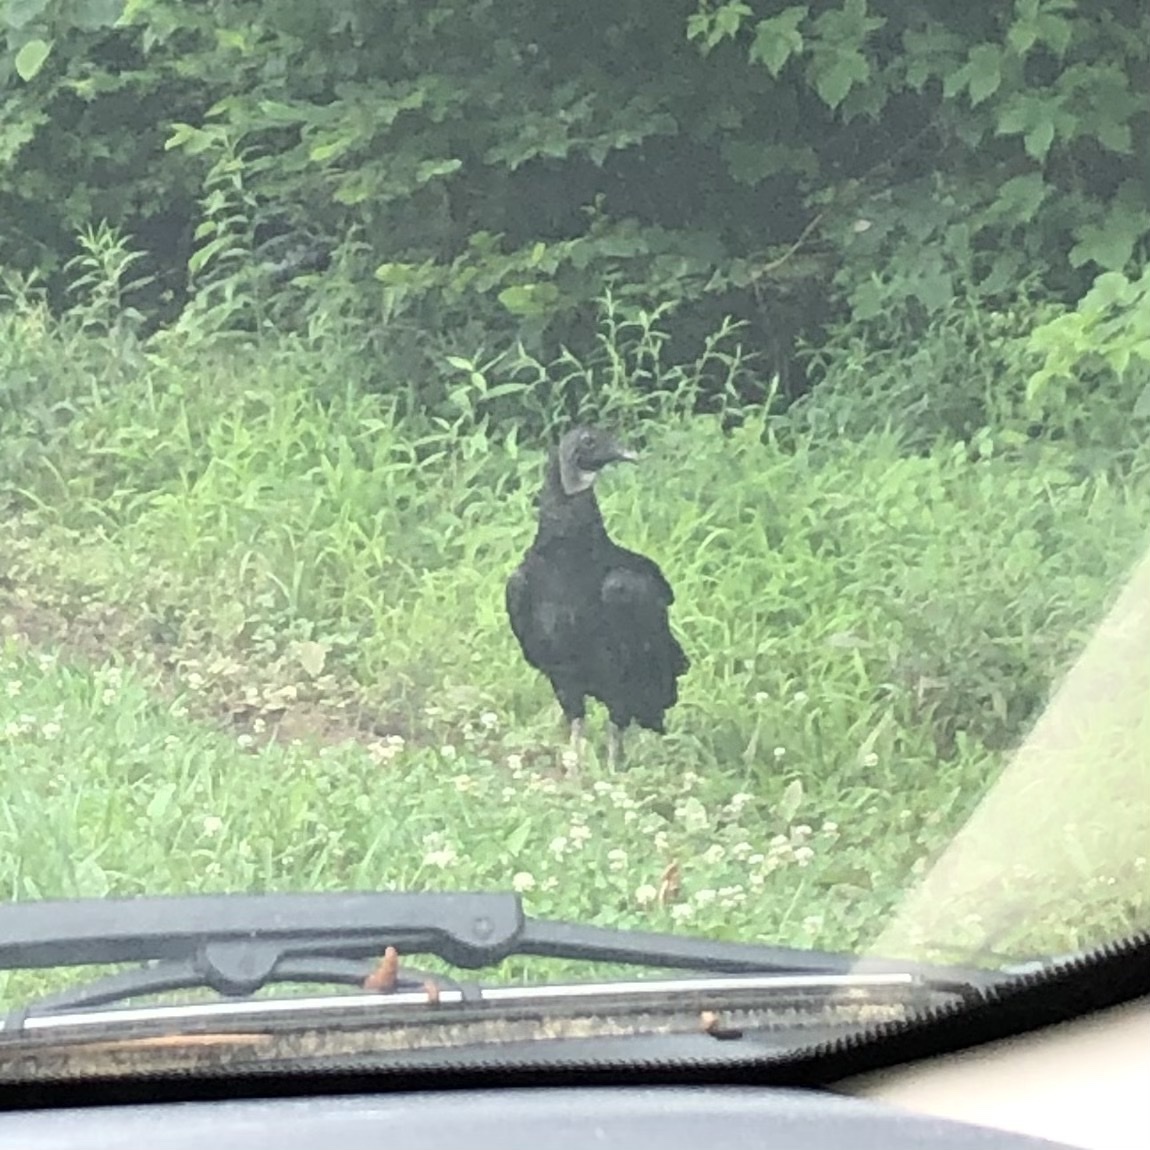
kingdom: Animalia
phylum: Chordata
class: Aves
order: Accipitriformes
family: Cathartidae
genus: Coragyps
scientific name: Coragyps atratus
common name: Black vulture
